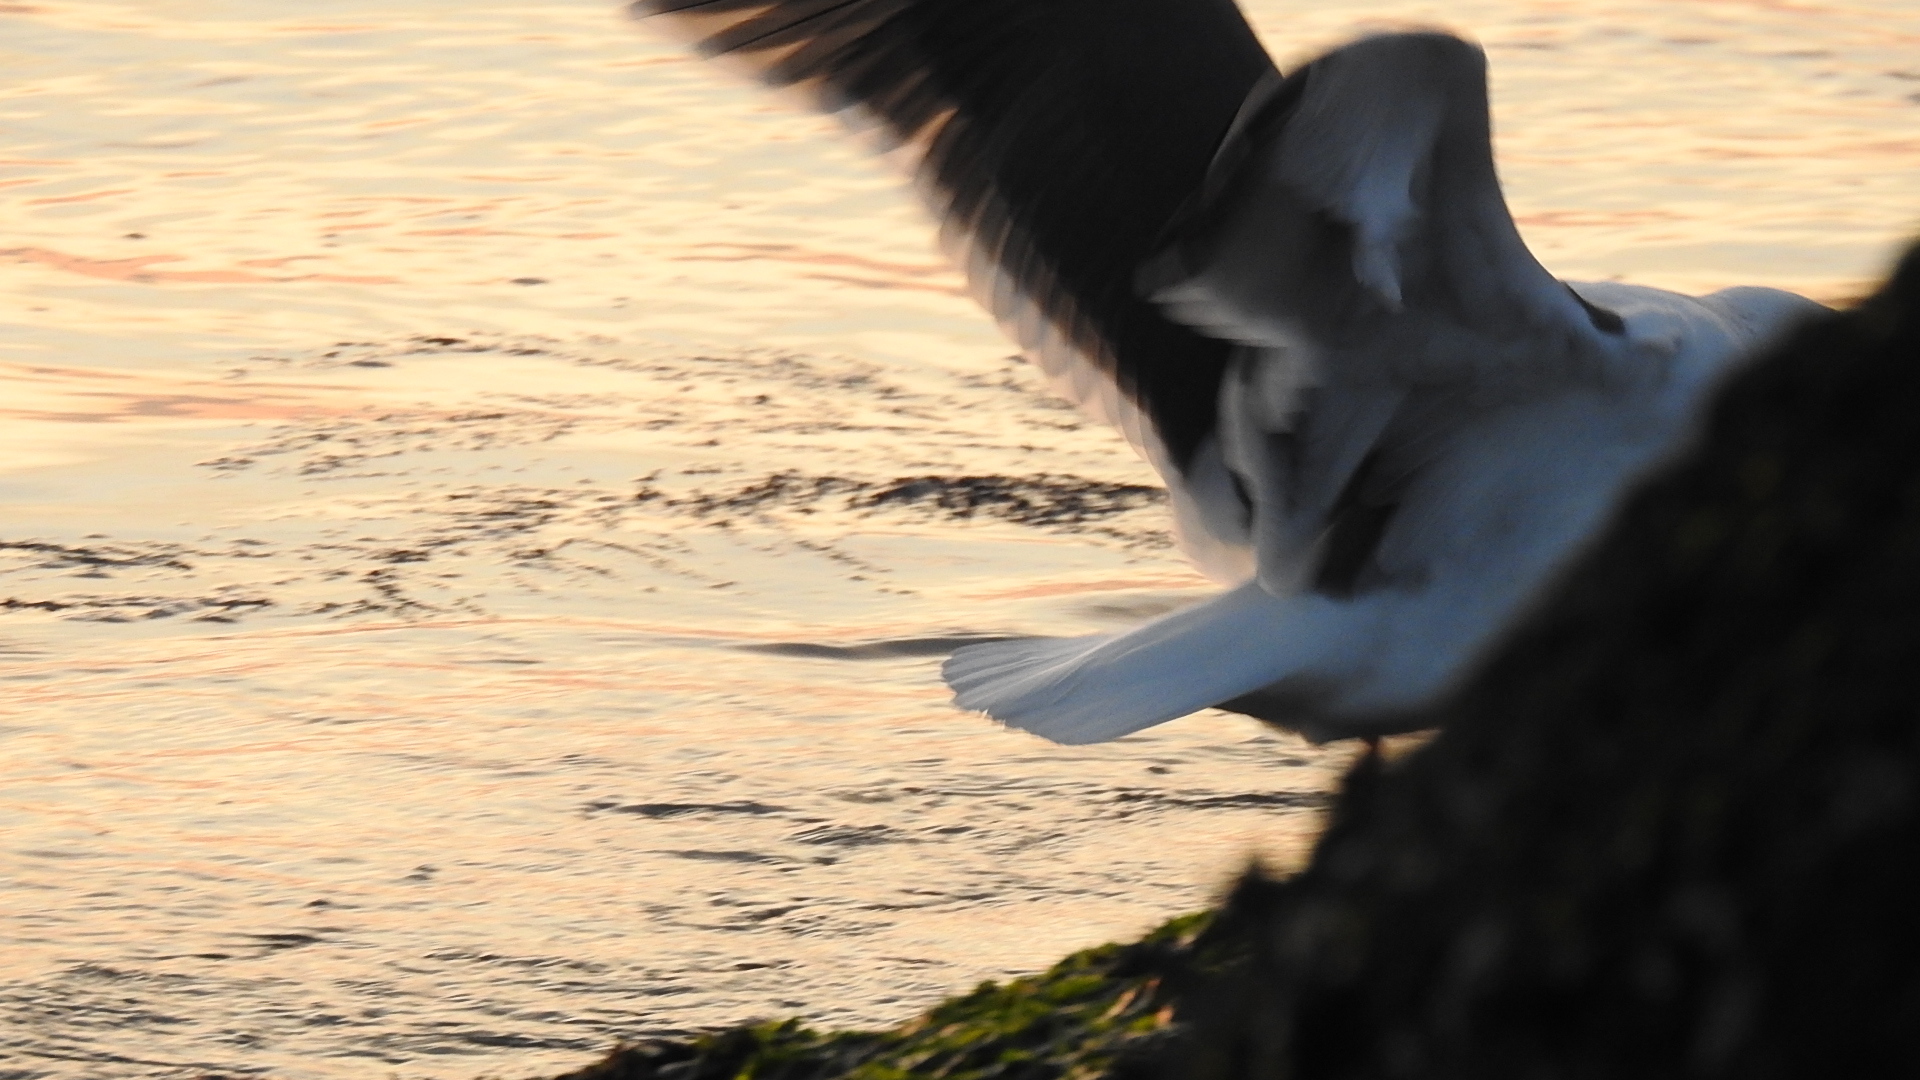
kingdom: Animalia
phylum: Chordata
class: Aves
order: Charadriiformes
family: Laridae
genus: Larus
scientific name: Larus occidentalis
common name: Western gull
